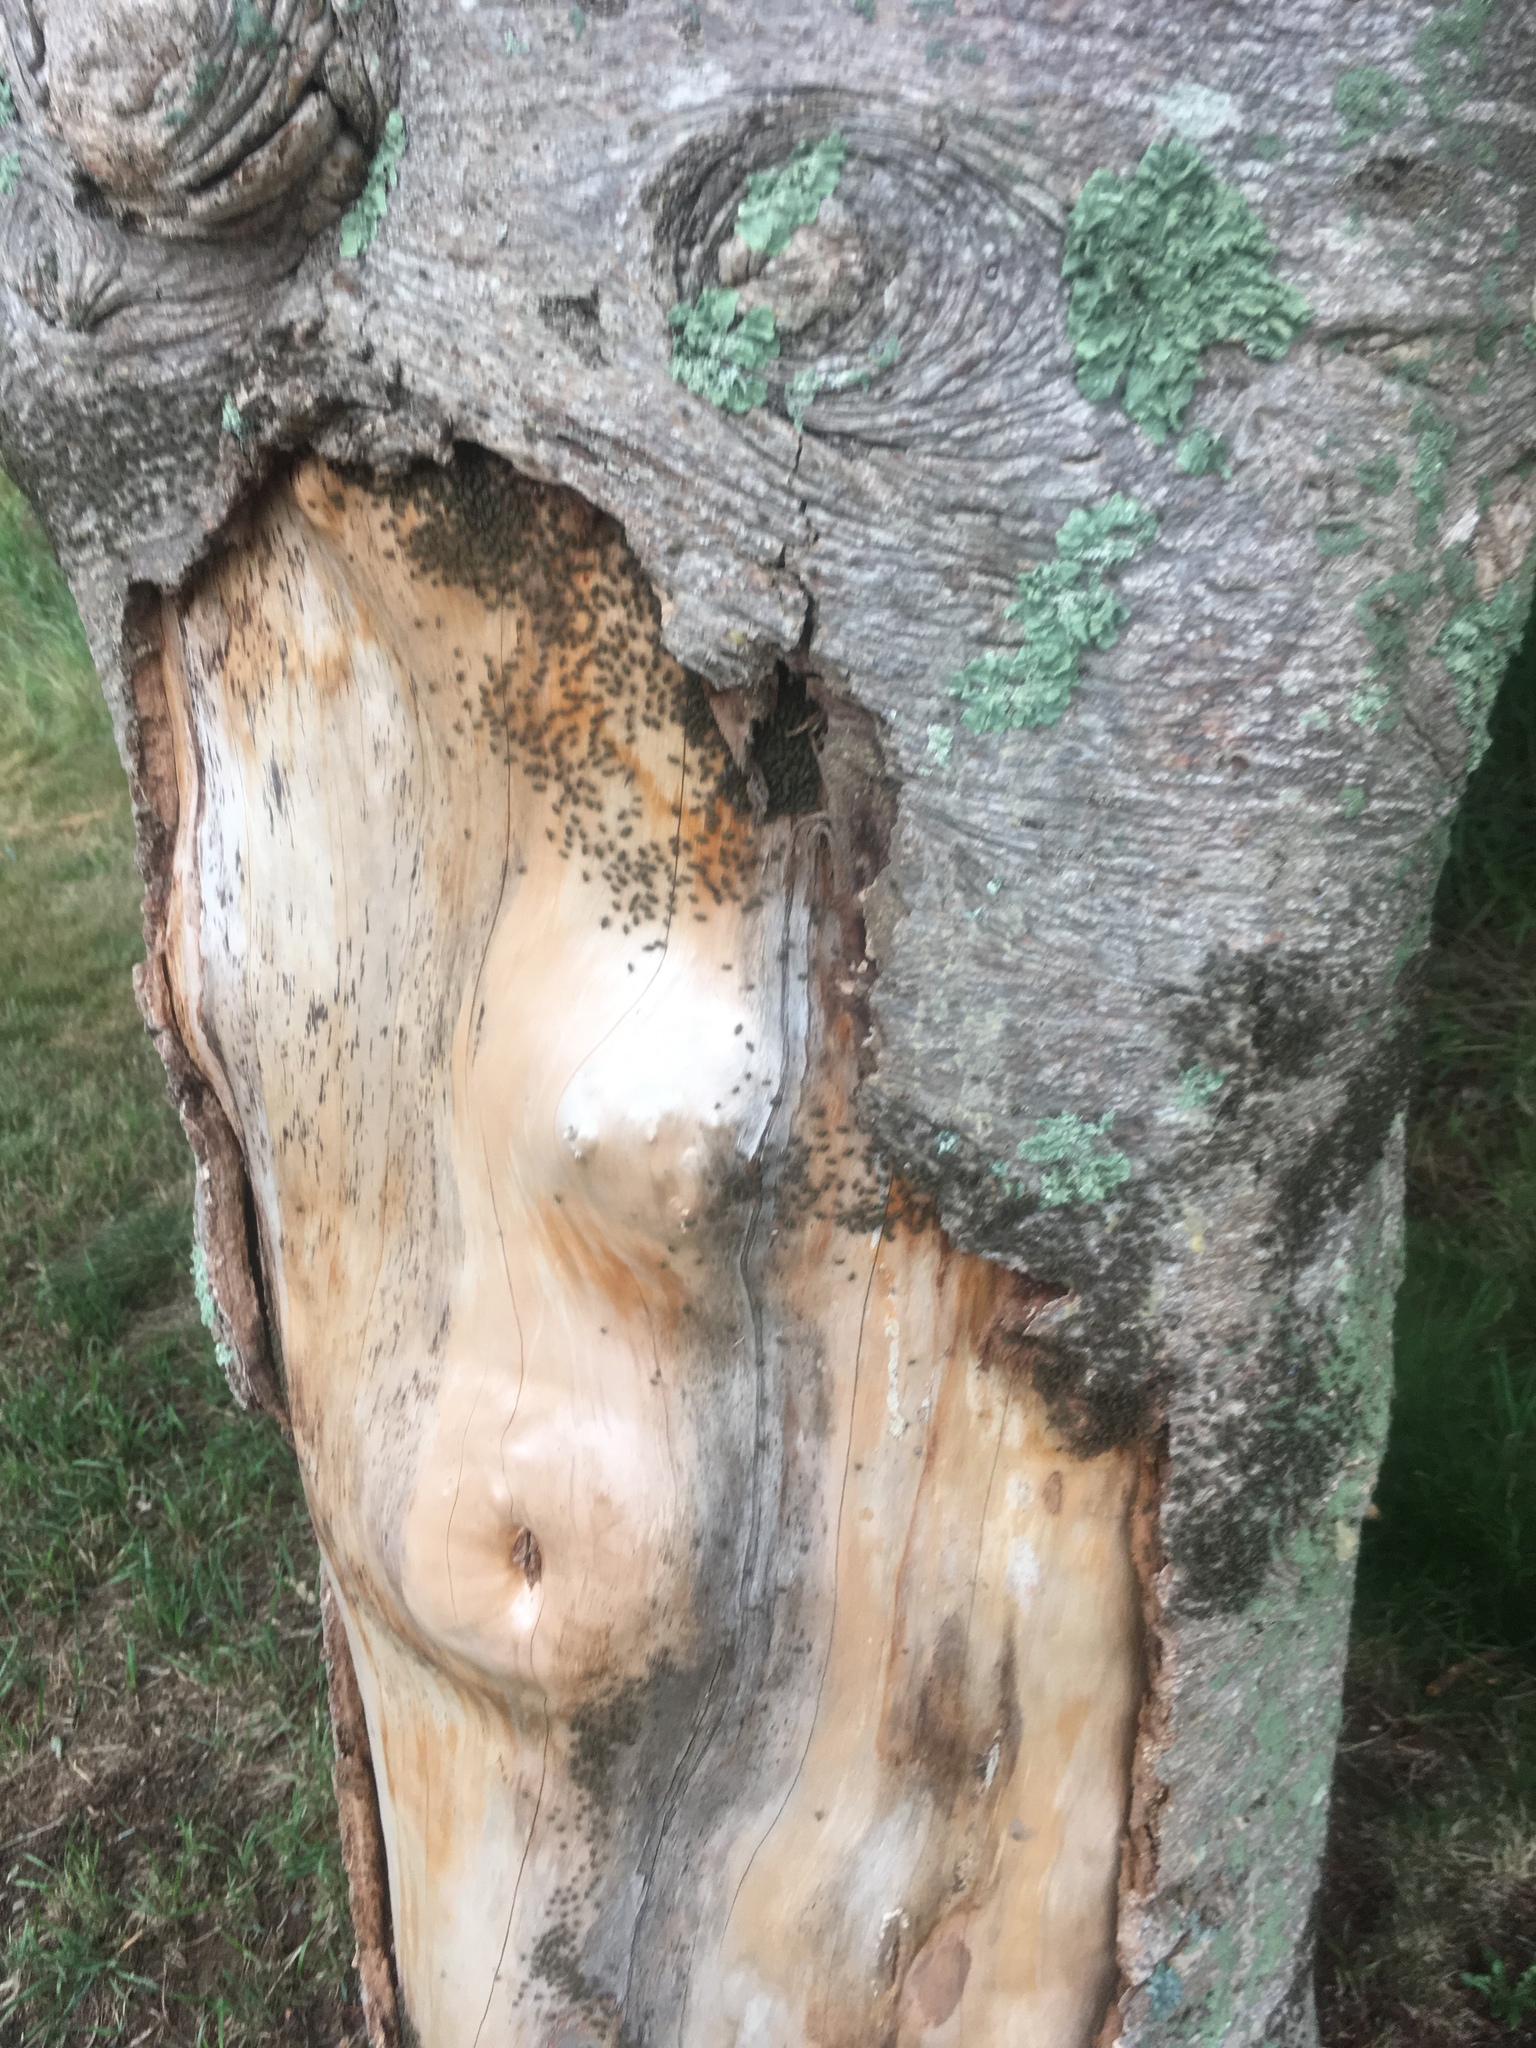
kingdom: Animalia
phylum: Arthropoda
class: Insecta
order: Psocodea
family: Psocidae
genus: Cerastipsocus
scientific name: Cerastipsocus venosus
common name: Tree cattle
